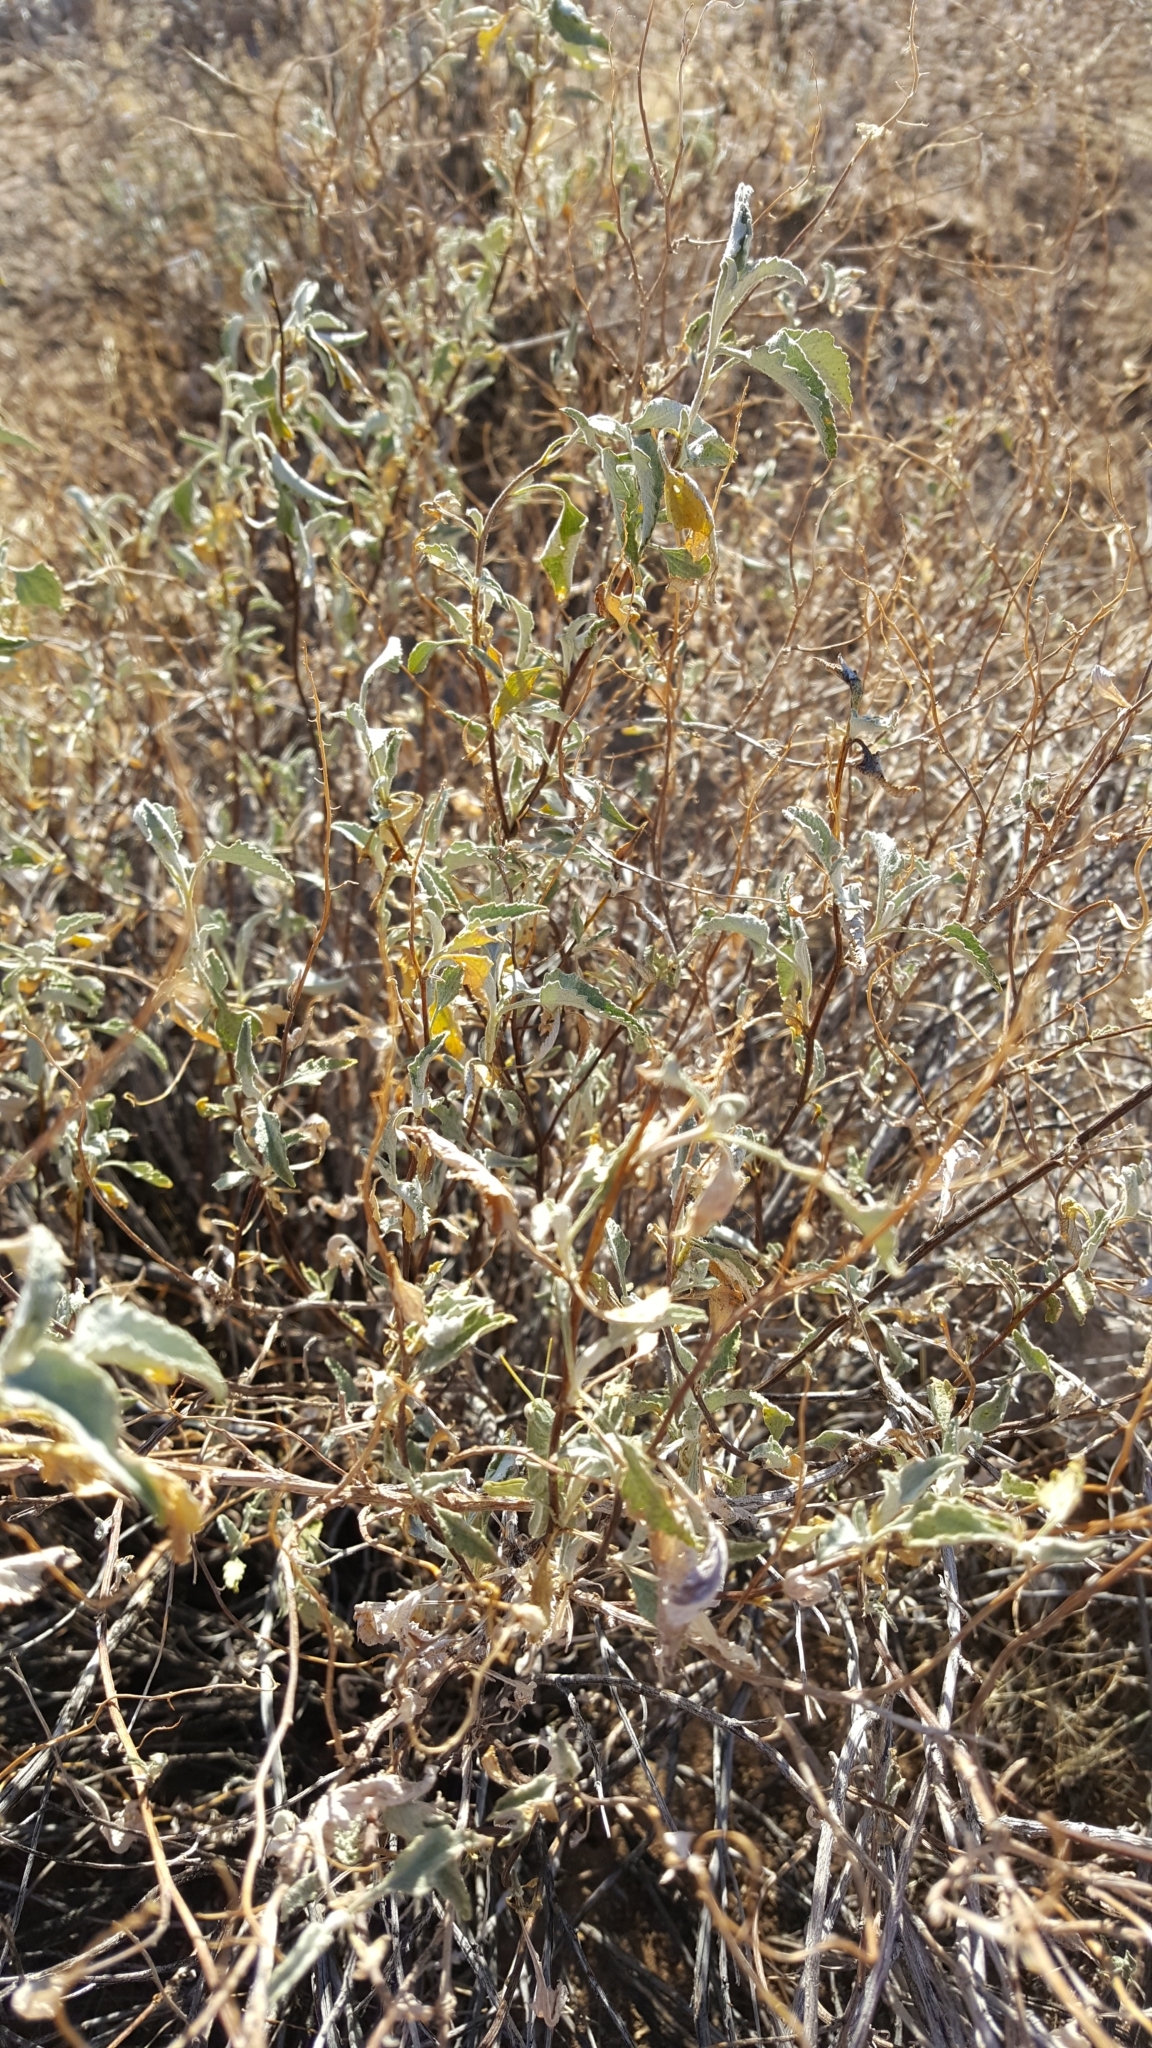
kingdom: Plantae
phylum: Tracheophyta
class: Magnoliopsida
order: Asterales
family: Asteraceae
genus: Ambrosia
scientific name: Ambrosia deltoidea
